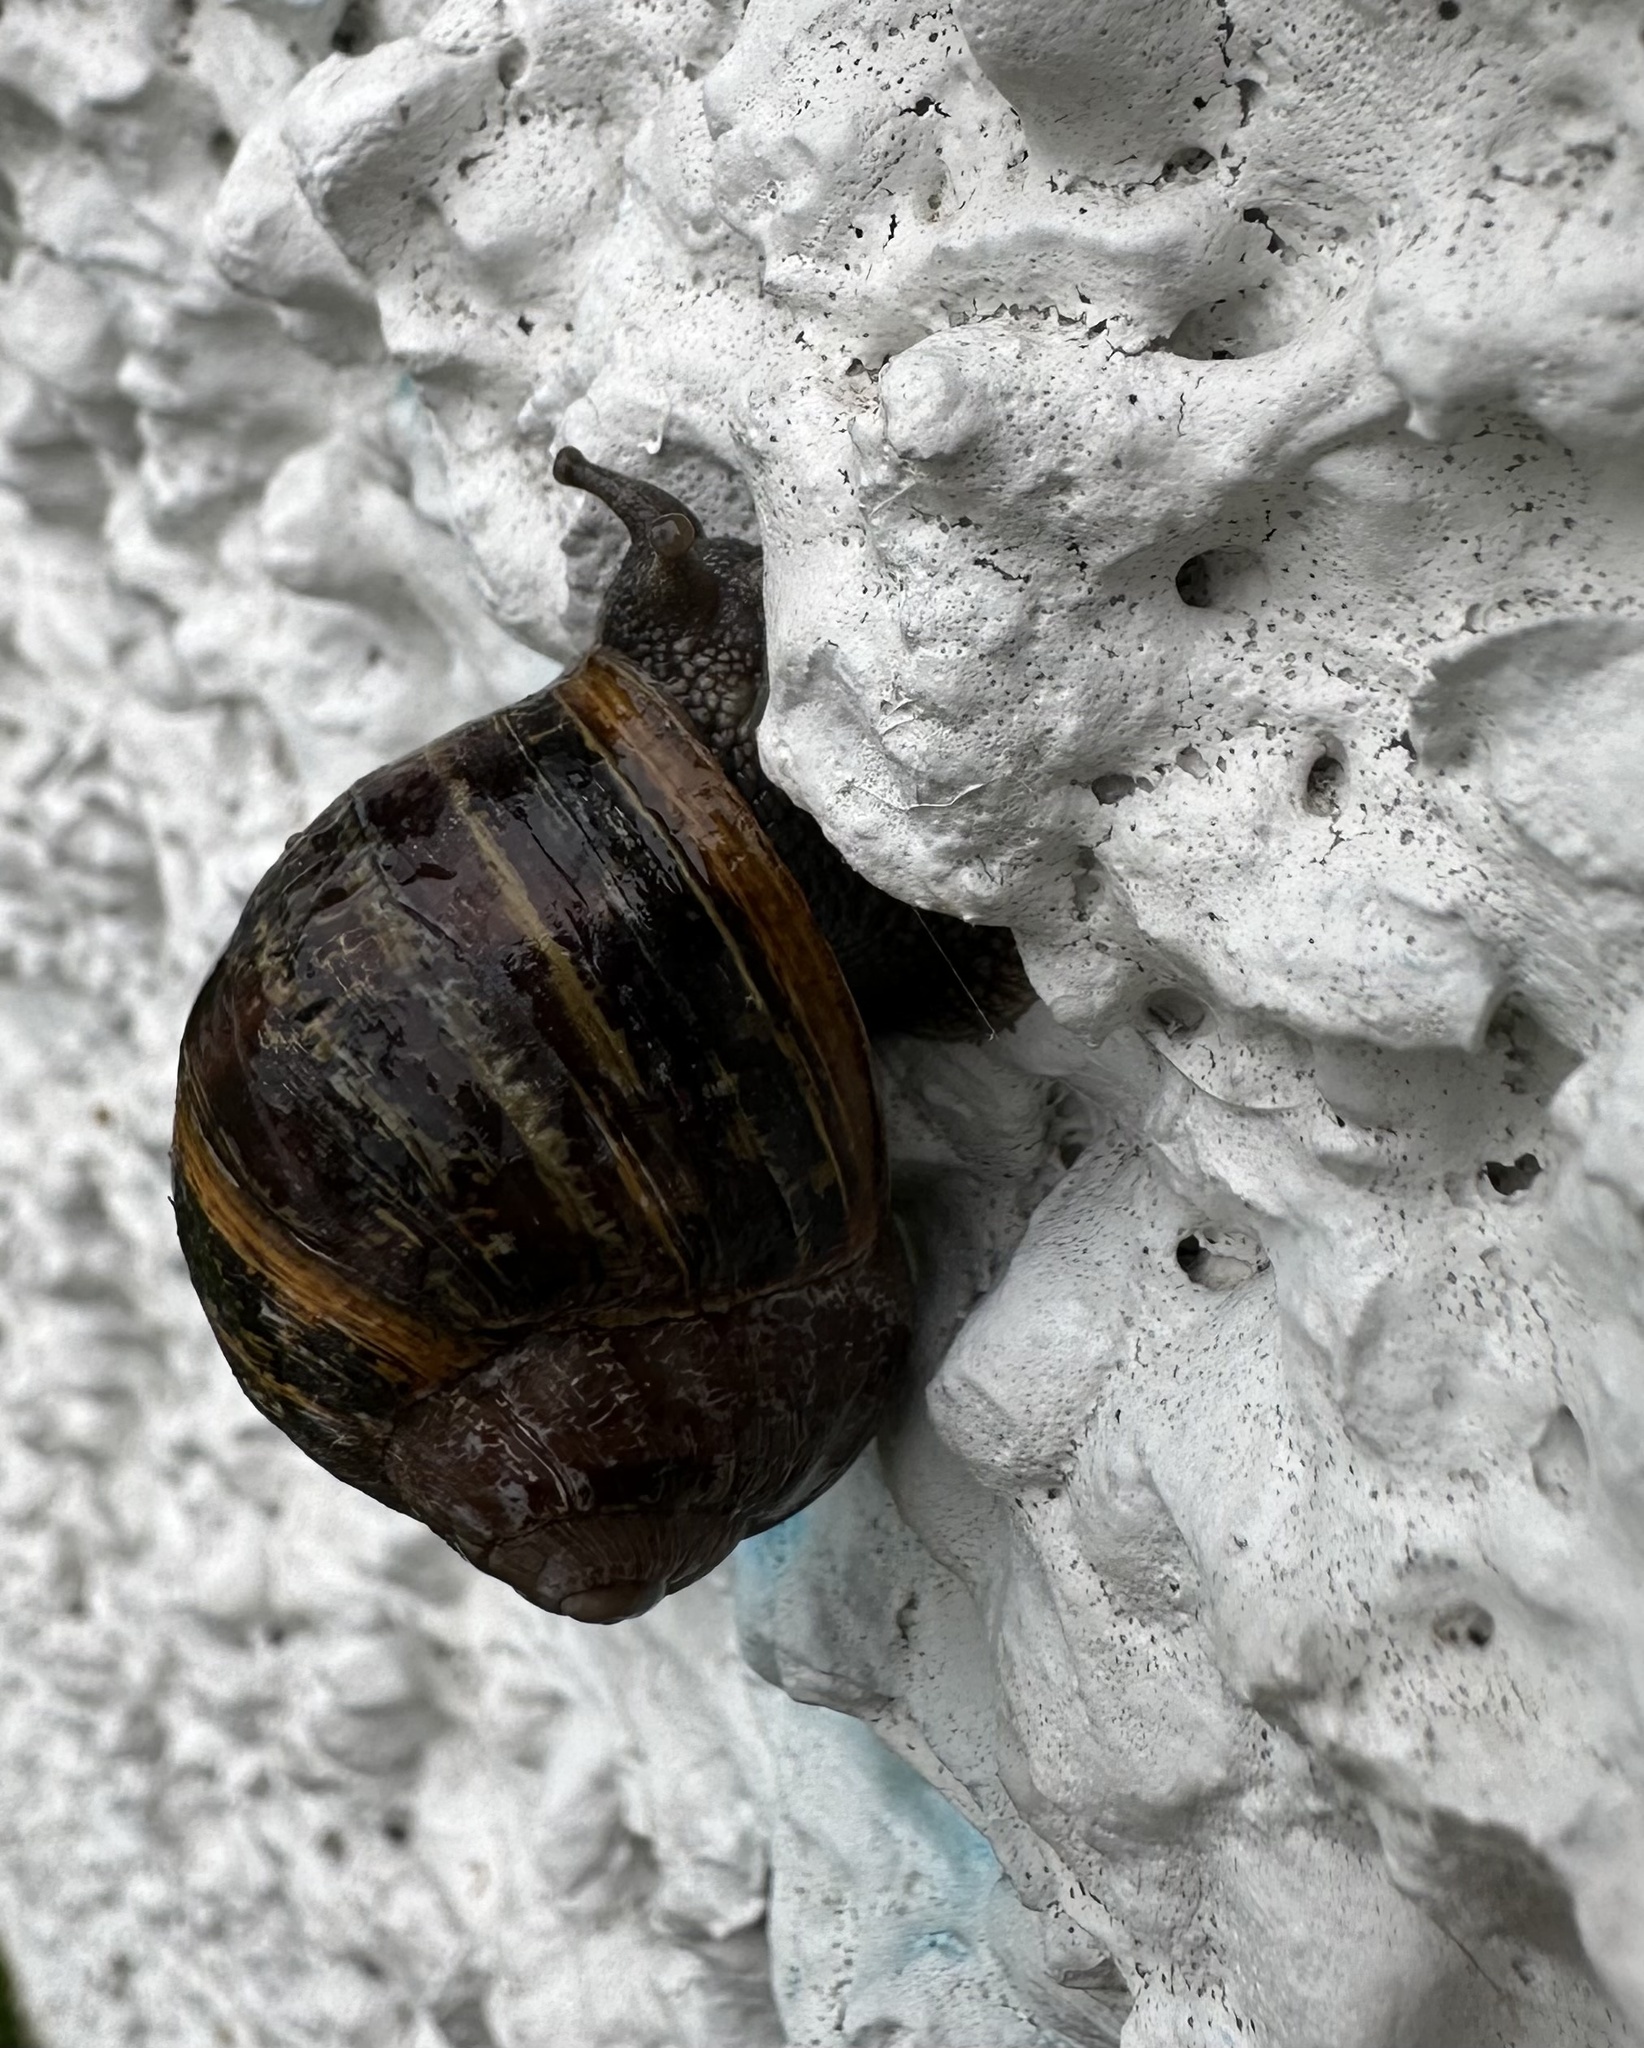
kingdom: Animalia
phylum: Mollusca
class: Gastropoda
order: Stylommatophora
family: Helicidae
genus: Cornu
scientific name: Cornu aspersum
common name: Brown garden snail
